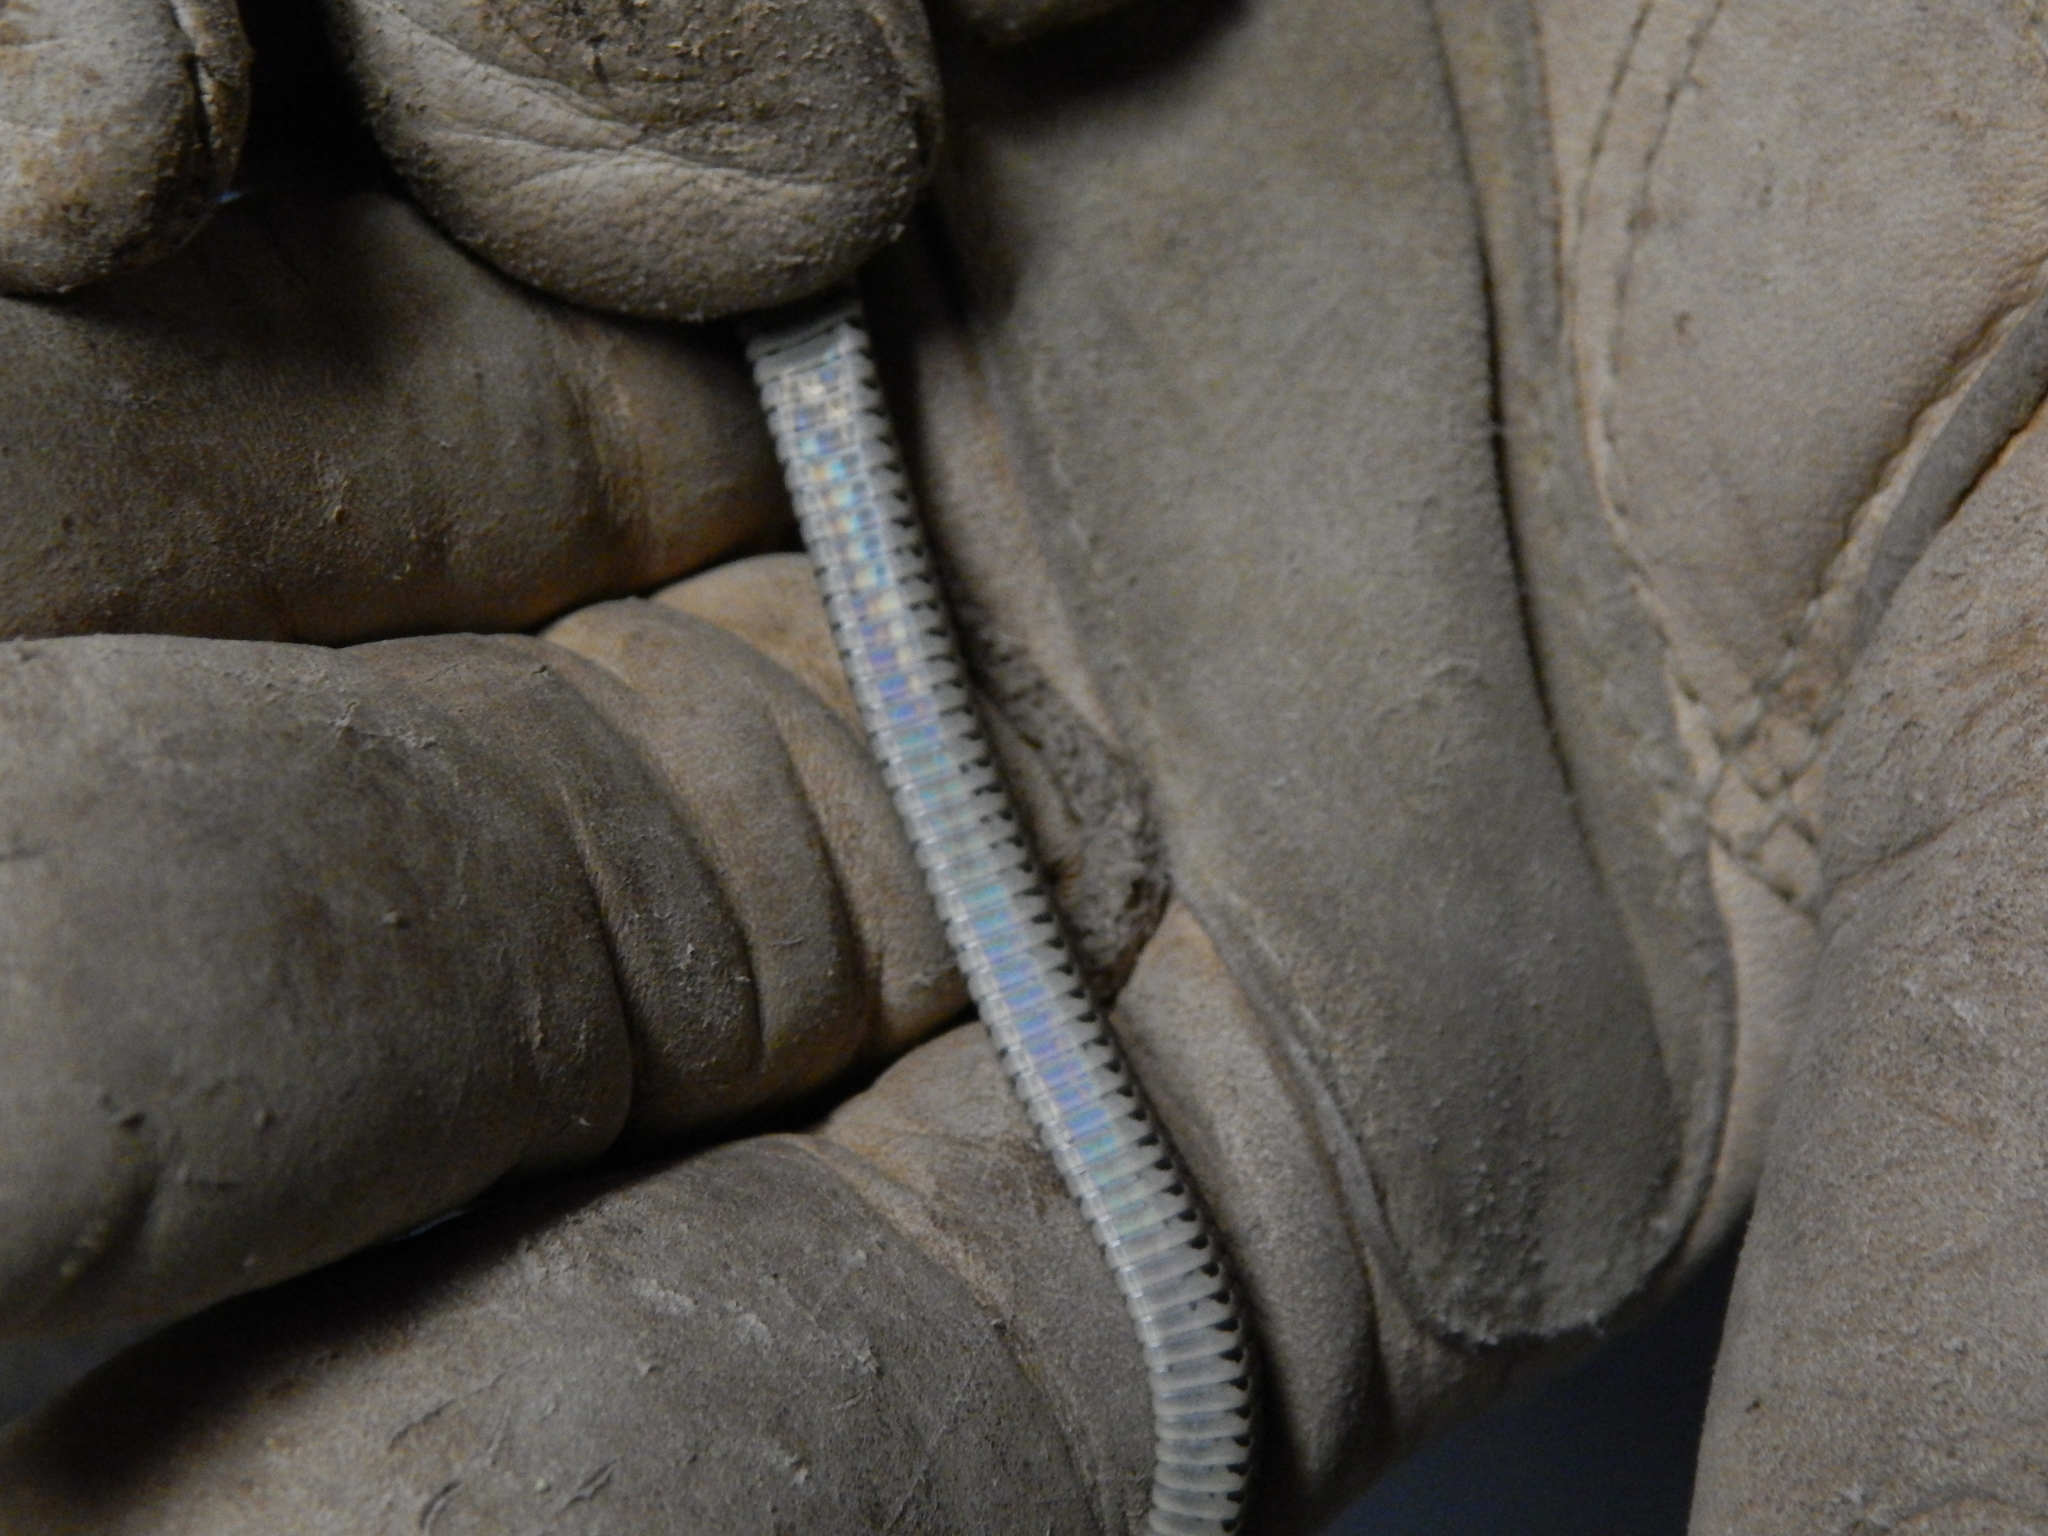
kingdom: Animalia
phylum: Chordata
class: Squamata
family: Colubridae
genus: Thamnophis
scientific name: Thamnophis sirtalis
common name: Common garter snake
